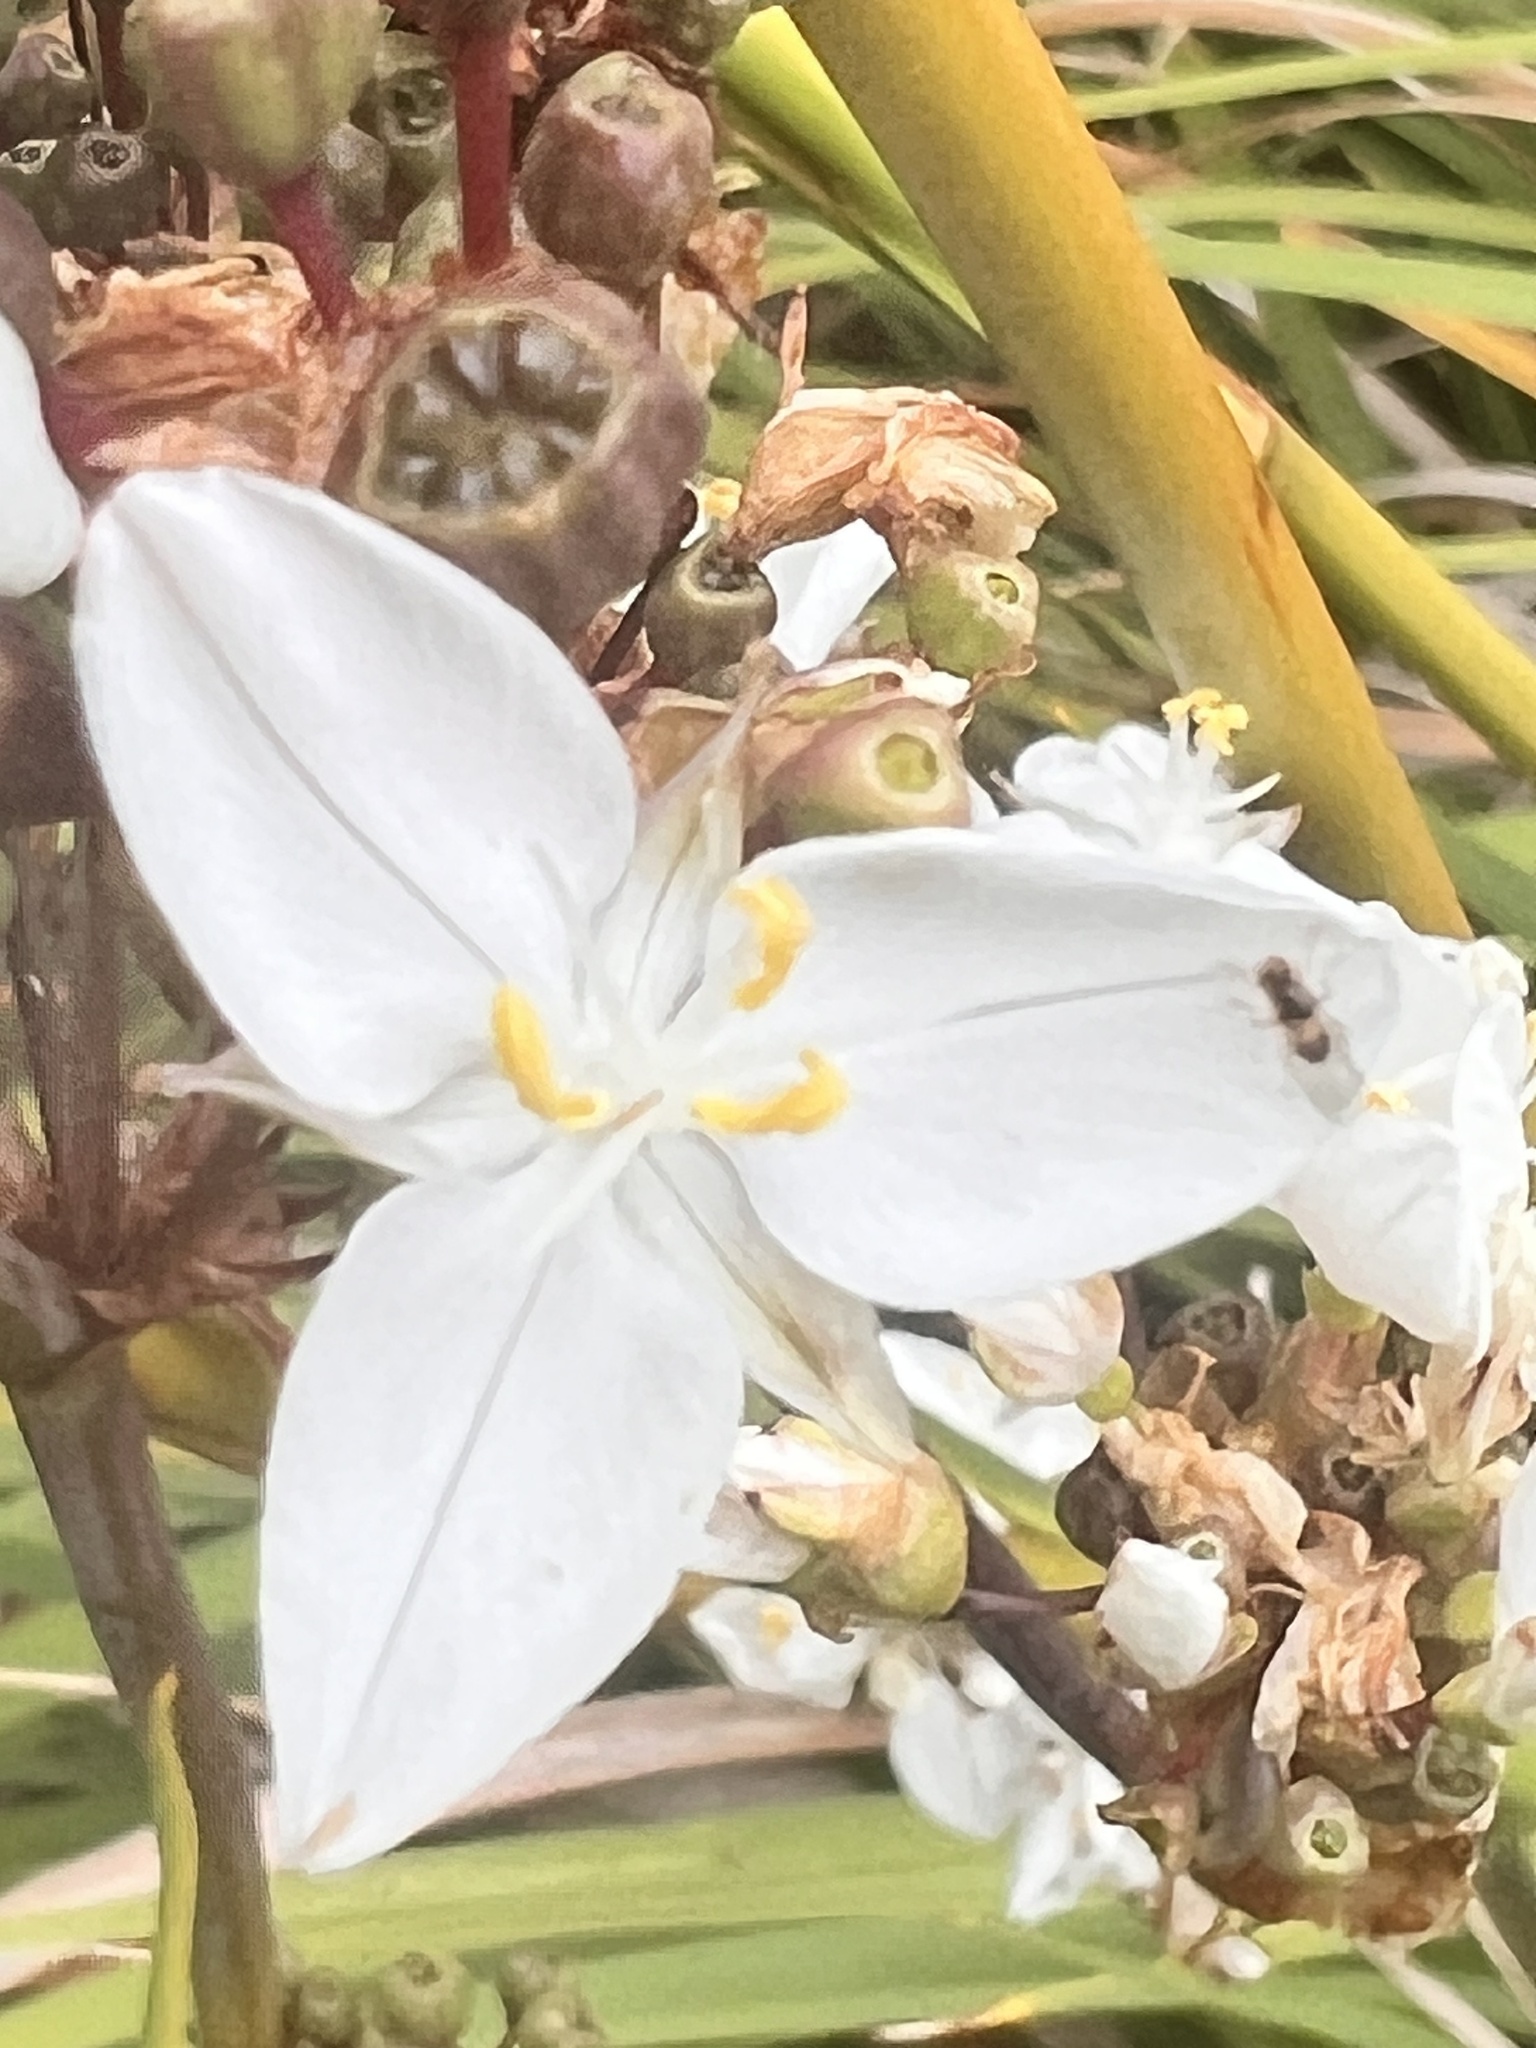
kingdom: Plantae
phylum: Tracheophyta
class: Liliopsida
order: Asparagales
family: Iridaceae
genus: Libertia
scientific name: Libertia chilensis
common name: Satin flower
